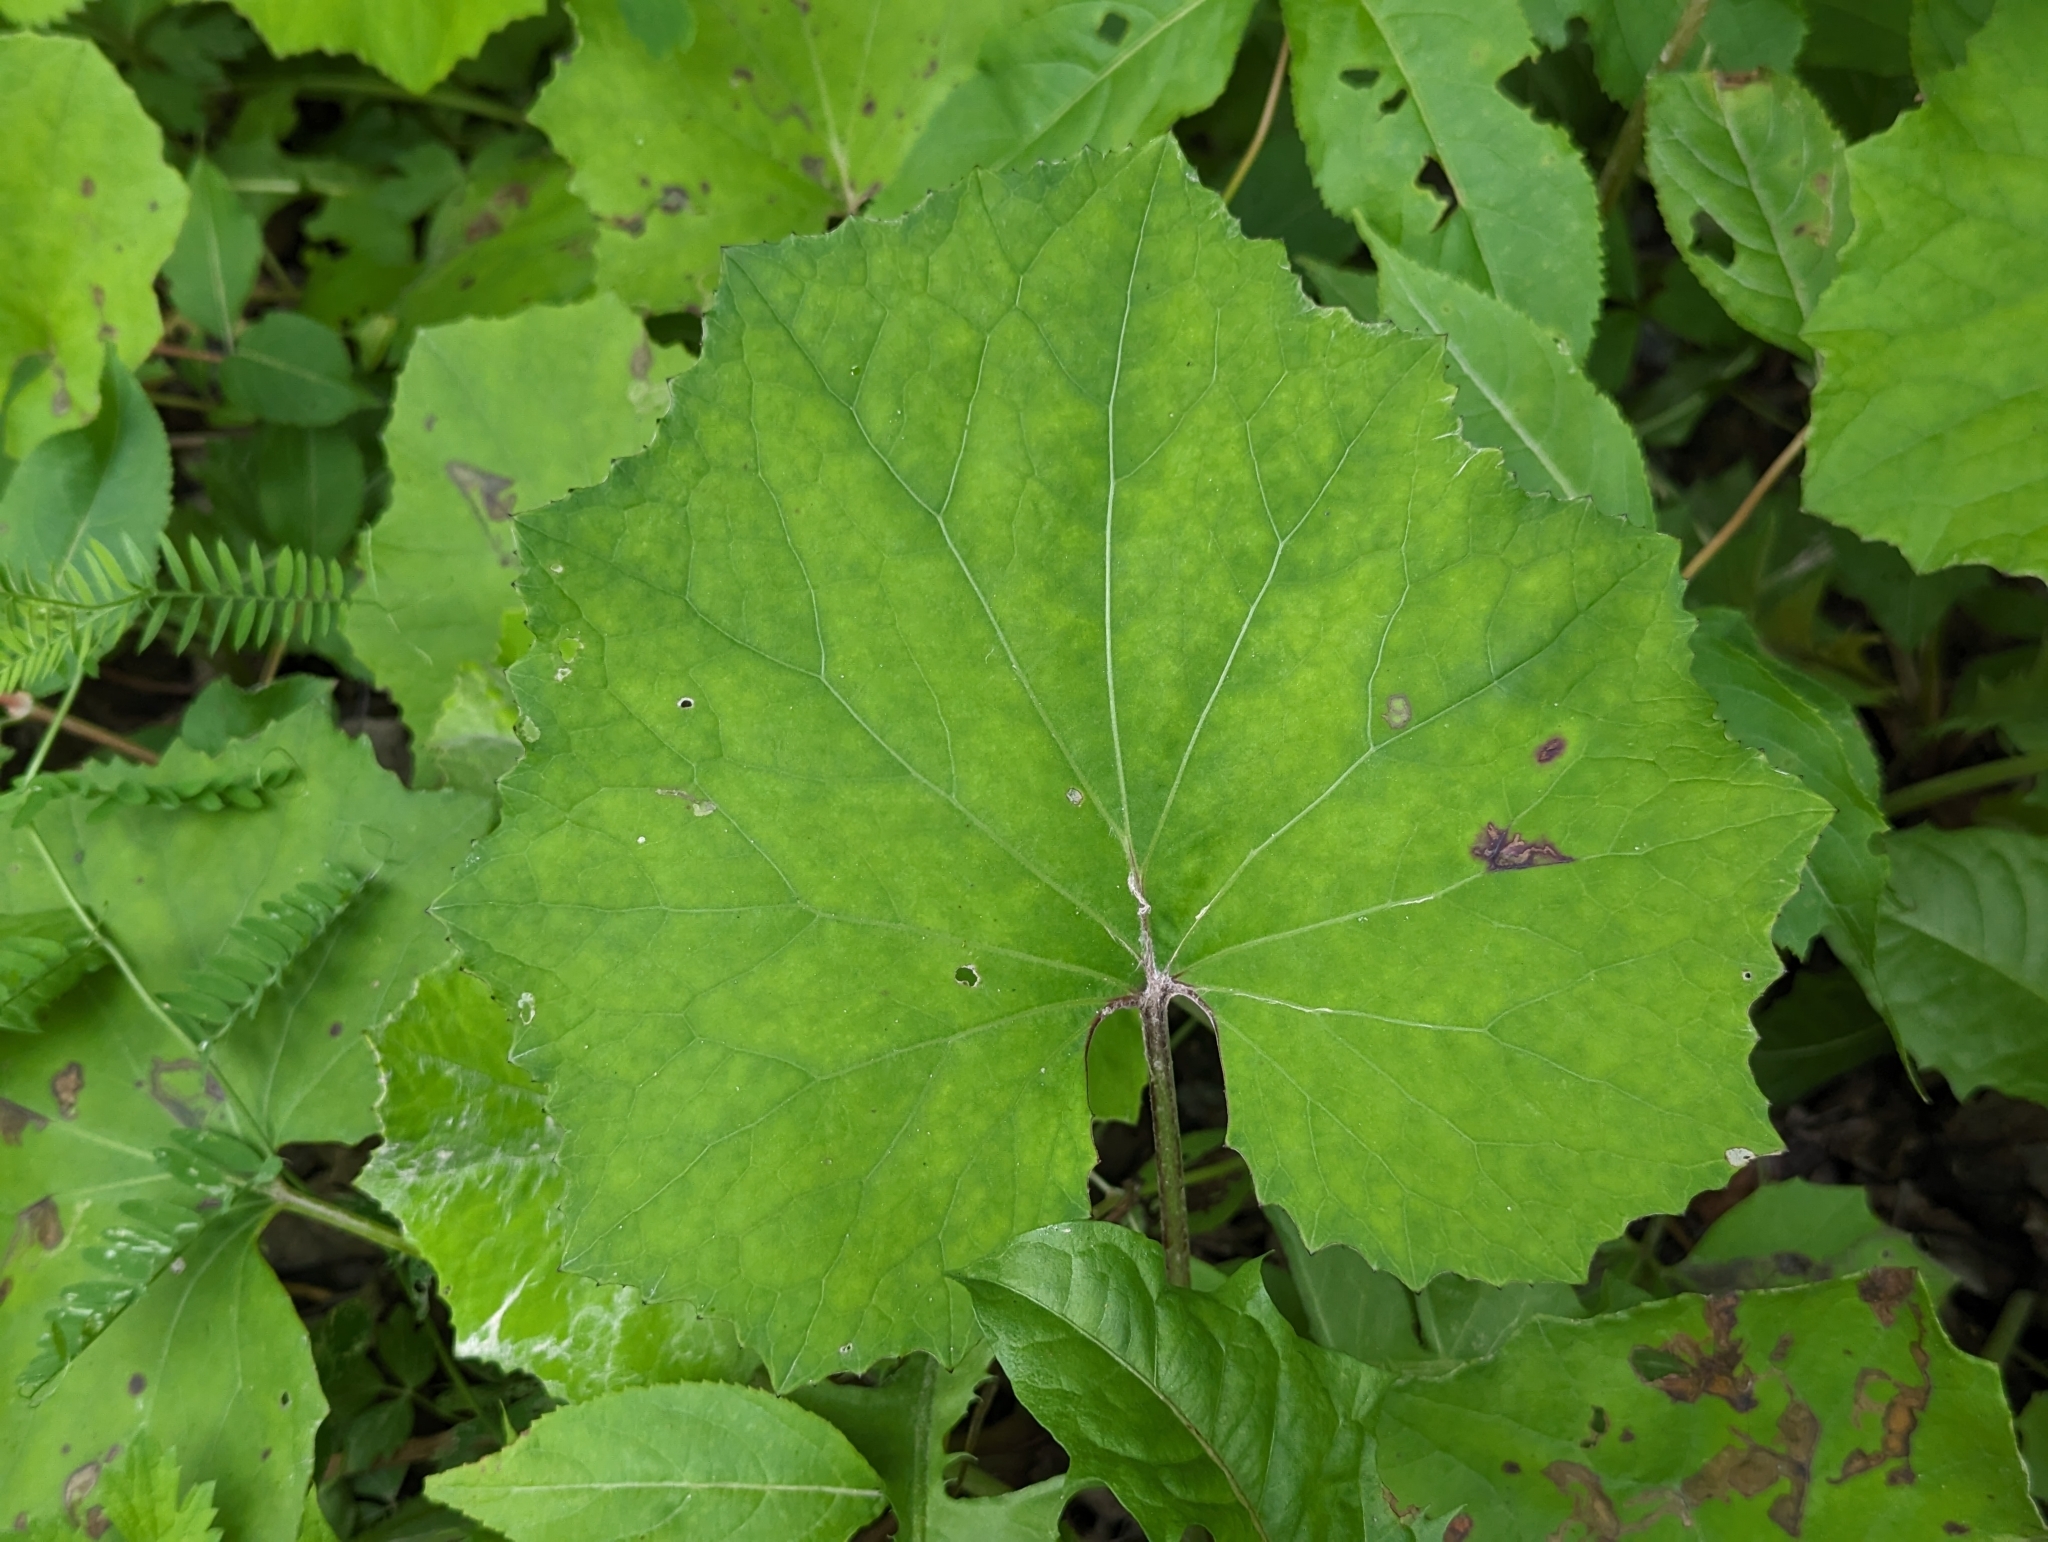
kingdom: Plantae
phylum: Tracheophyta
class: Magnoliopsida
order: Asterales
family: Asteraceae
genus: Tussilago
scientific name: Tussilago farfara
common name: Coltsfoot
